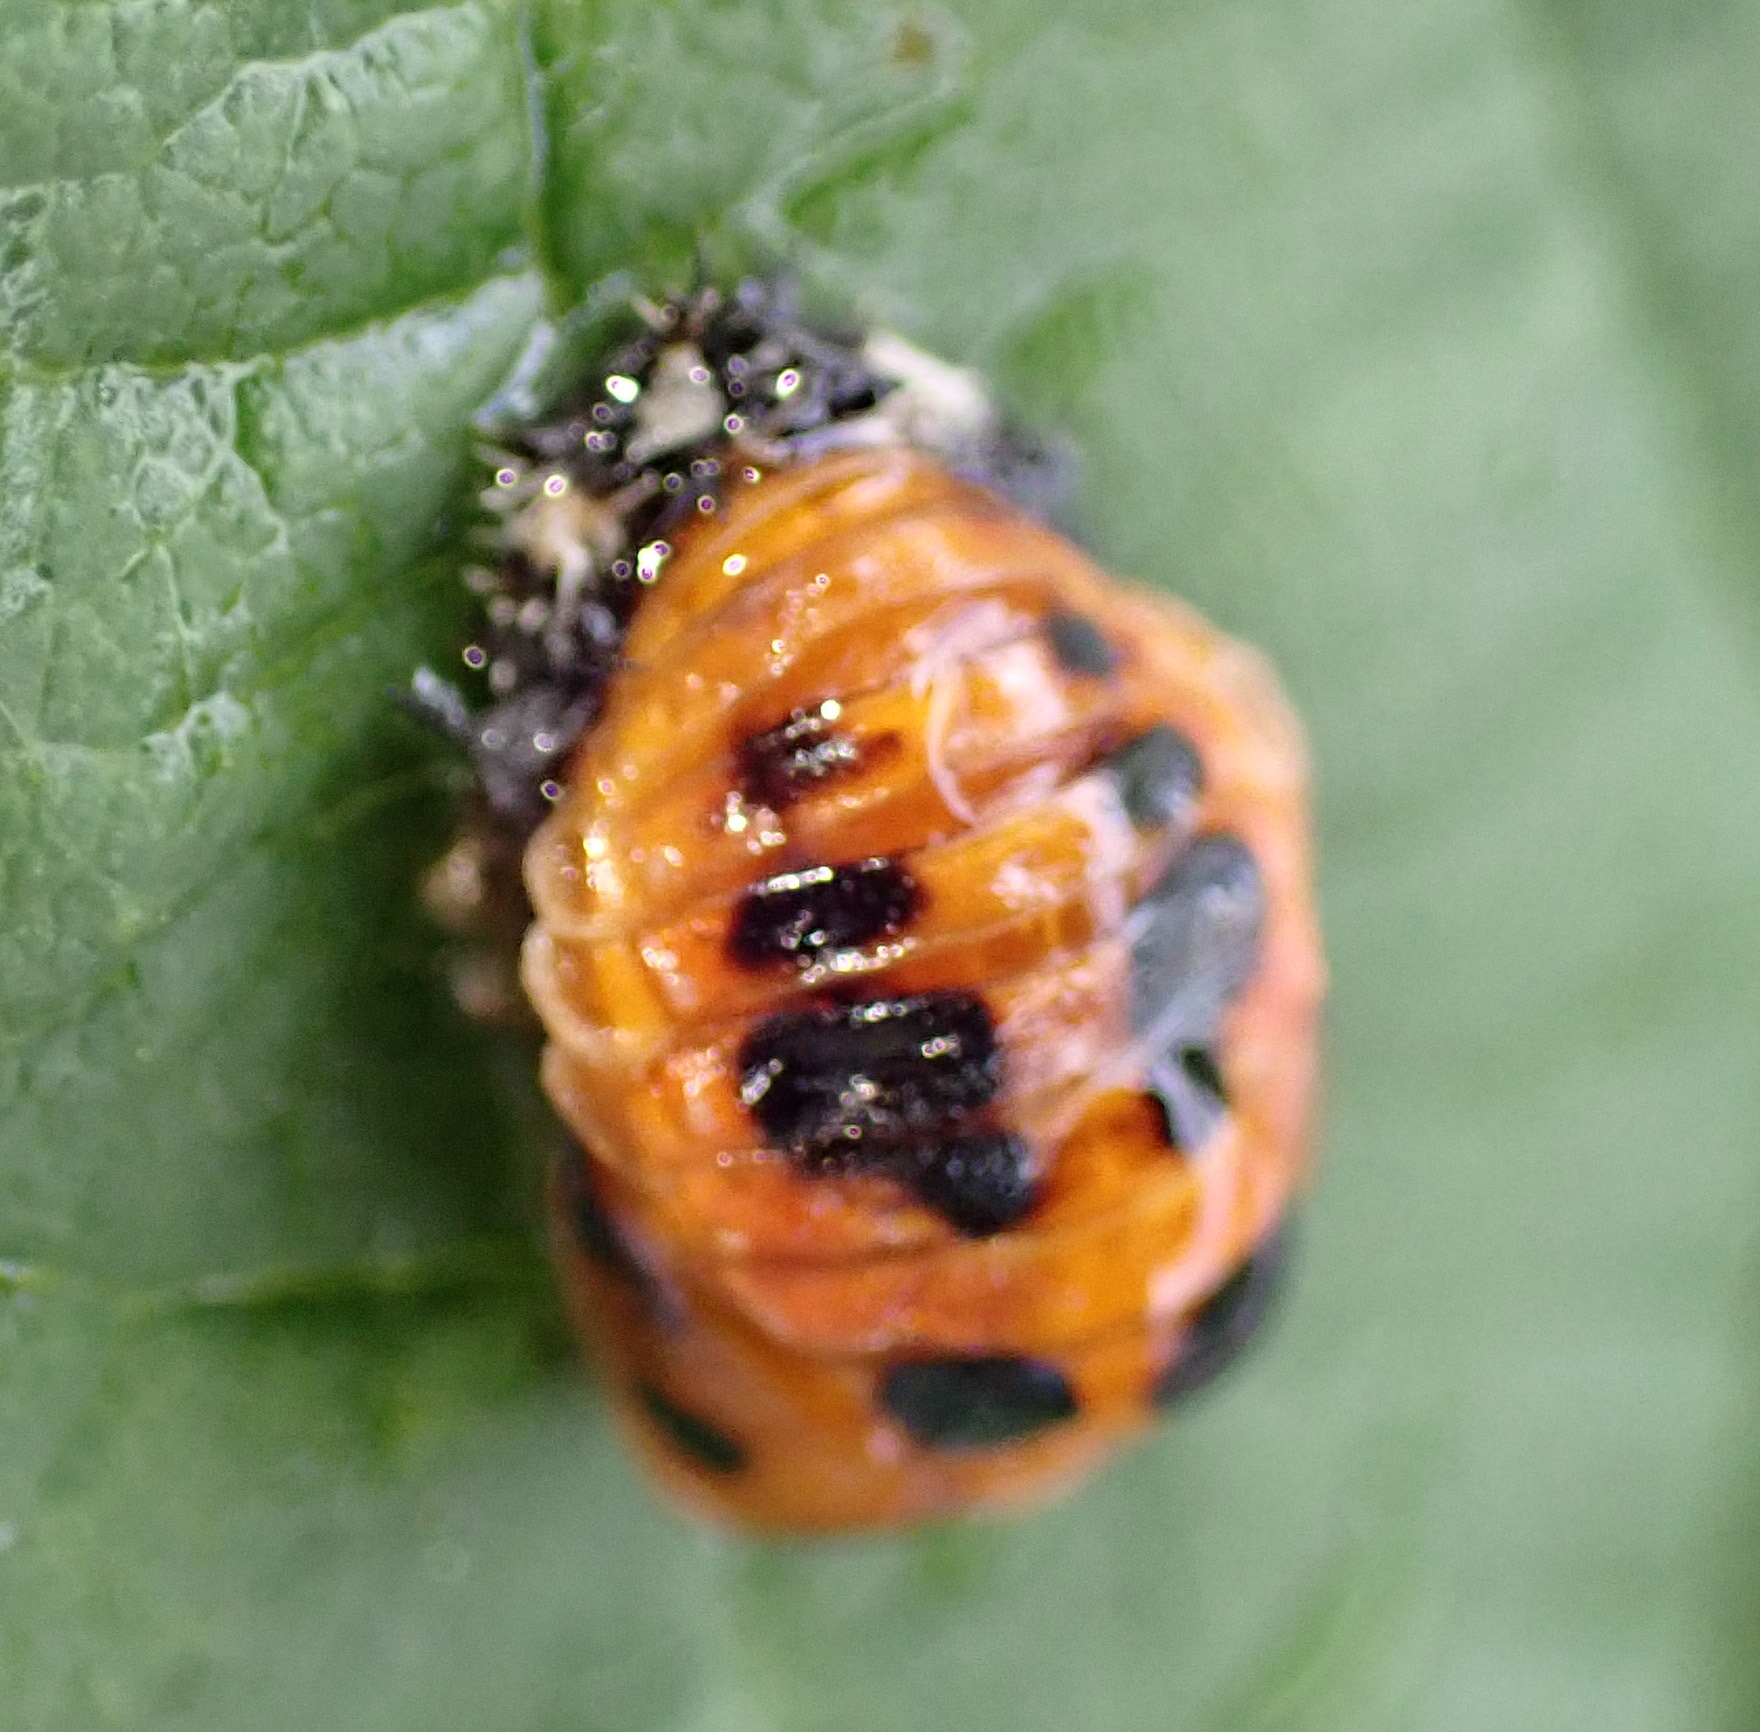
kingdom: Animalia
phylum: Arthropoda
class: Insecta
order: Coleoptera
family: Coccinellidae
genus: Harmonia
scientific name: Harmonia axyridis
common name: Harlequin ladybird
